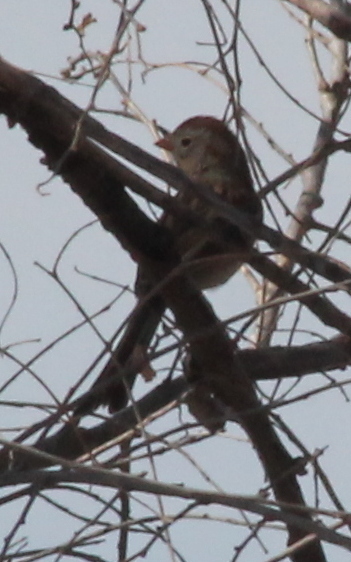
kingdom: Animalia
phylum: Chordata
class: Aves
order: Passeriformes
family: Passerellidae
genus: Spizella
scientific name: Spizella pusilla
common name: Field sparrow
